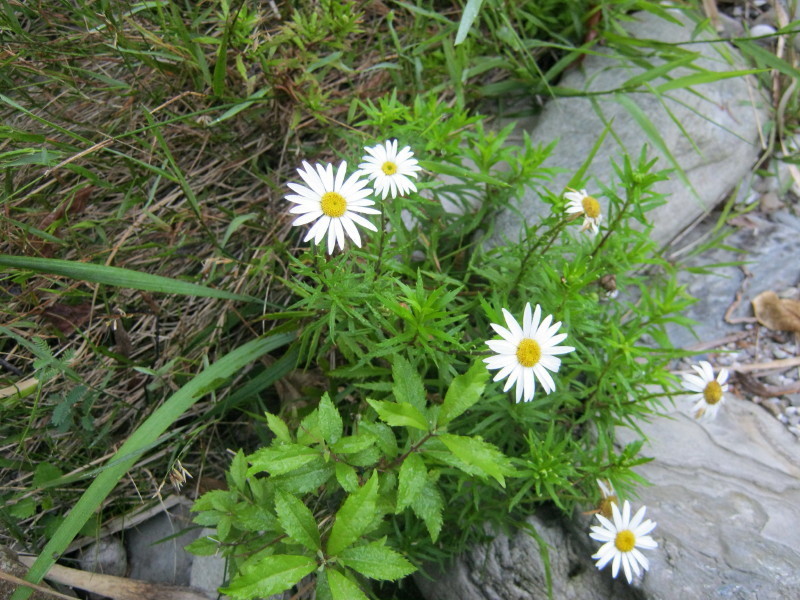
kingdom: Plantae
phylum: Tracheophyta
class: Magnoliopsida
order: Asterales
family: Asteraceae
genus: Osmitopsis
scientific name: Osmitopsis osmitoides
